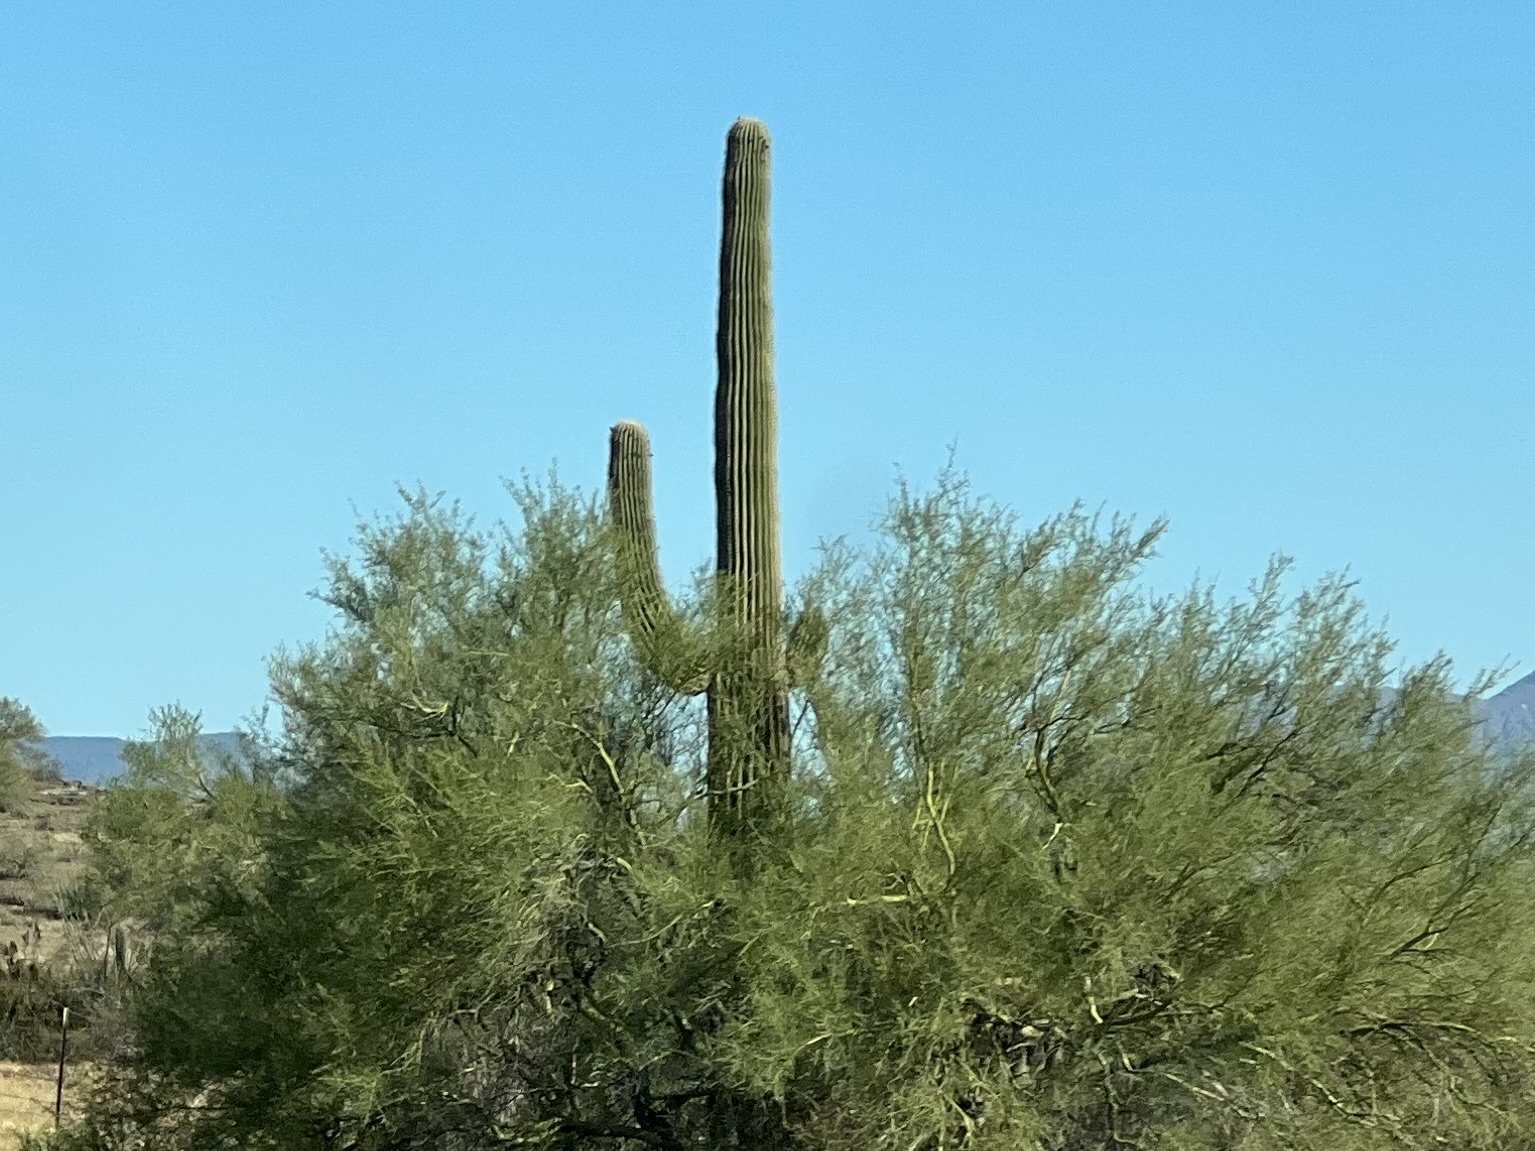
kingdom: Plantae
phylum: Tracheophyta
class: Magnoliopsida
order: Caryophyllales
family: Cactaceae
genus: Carnegiea
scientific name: Carnegiea gigantea
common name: Saguaro
